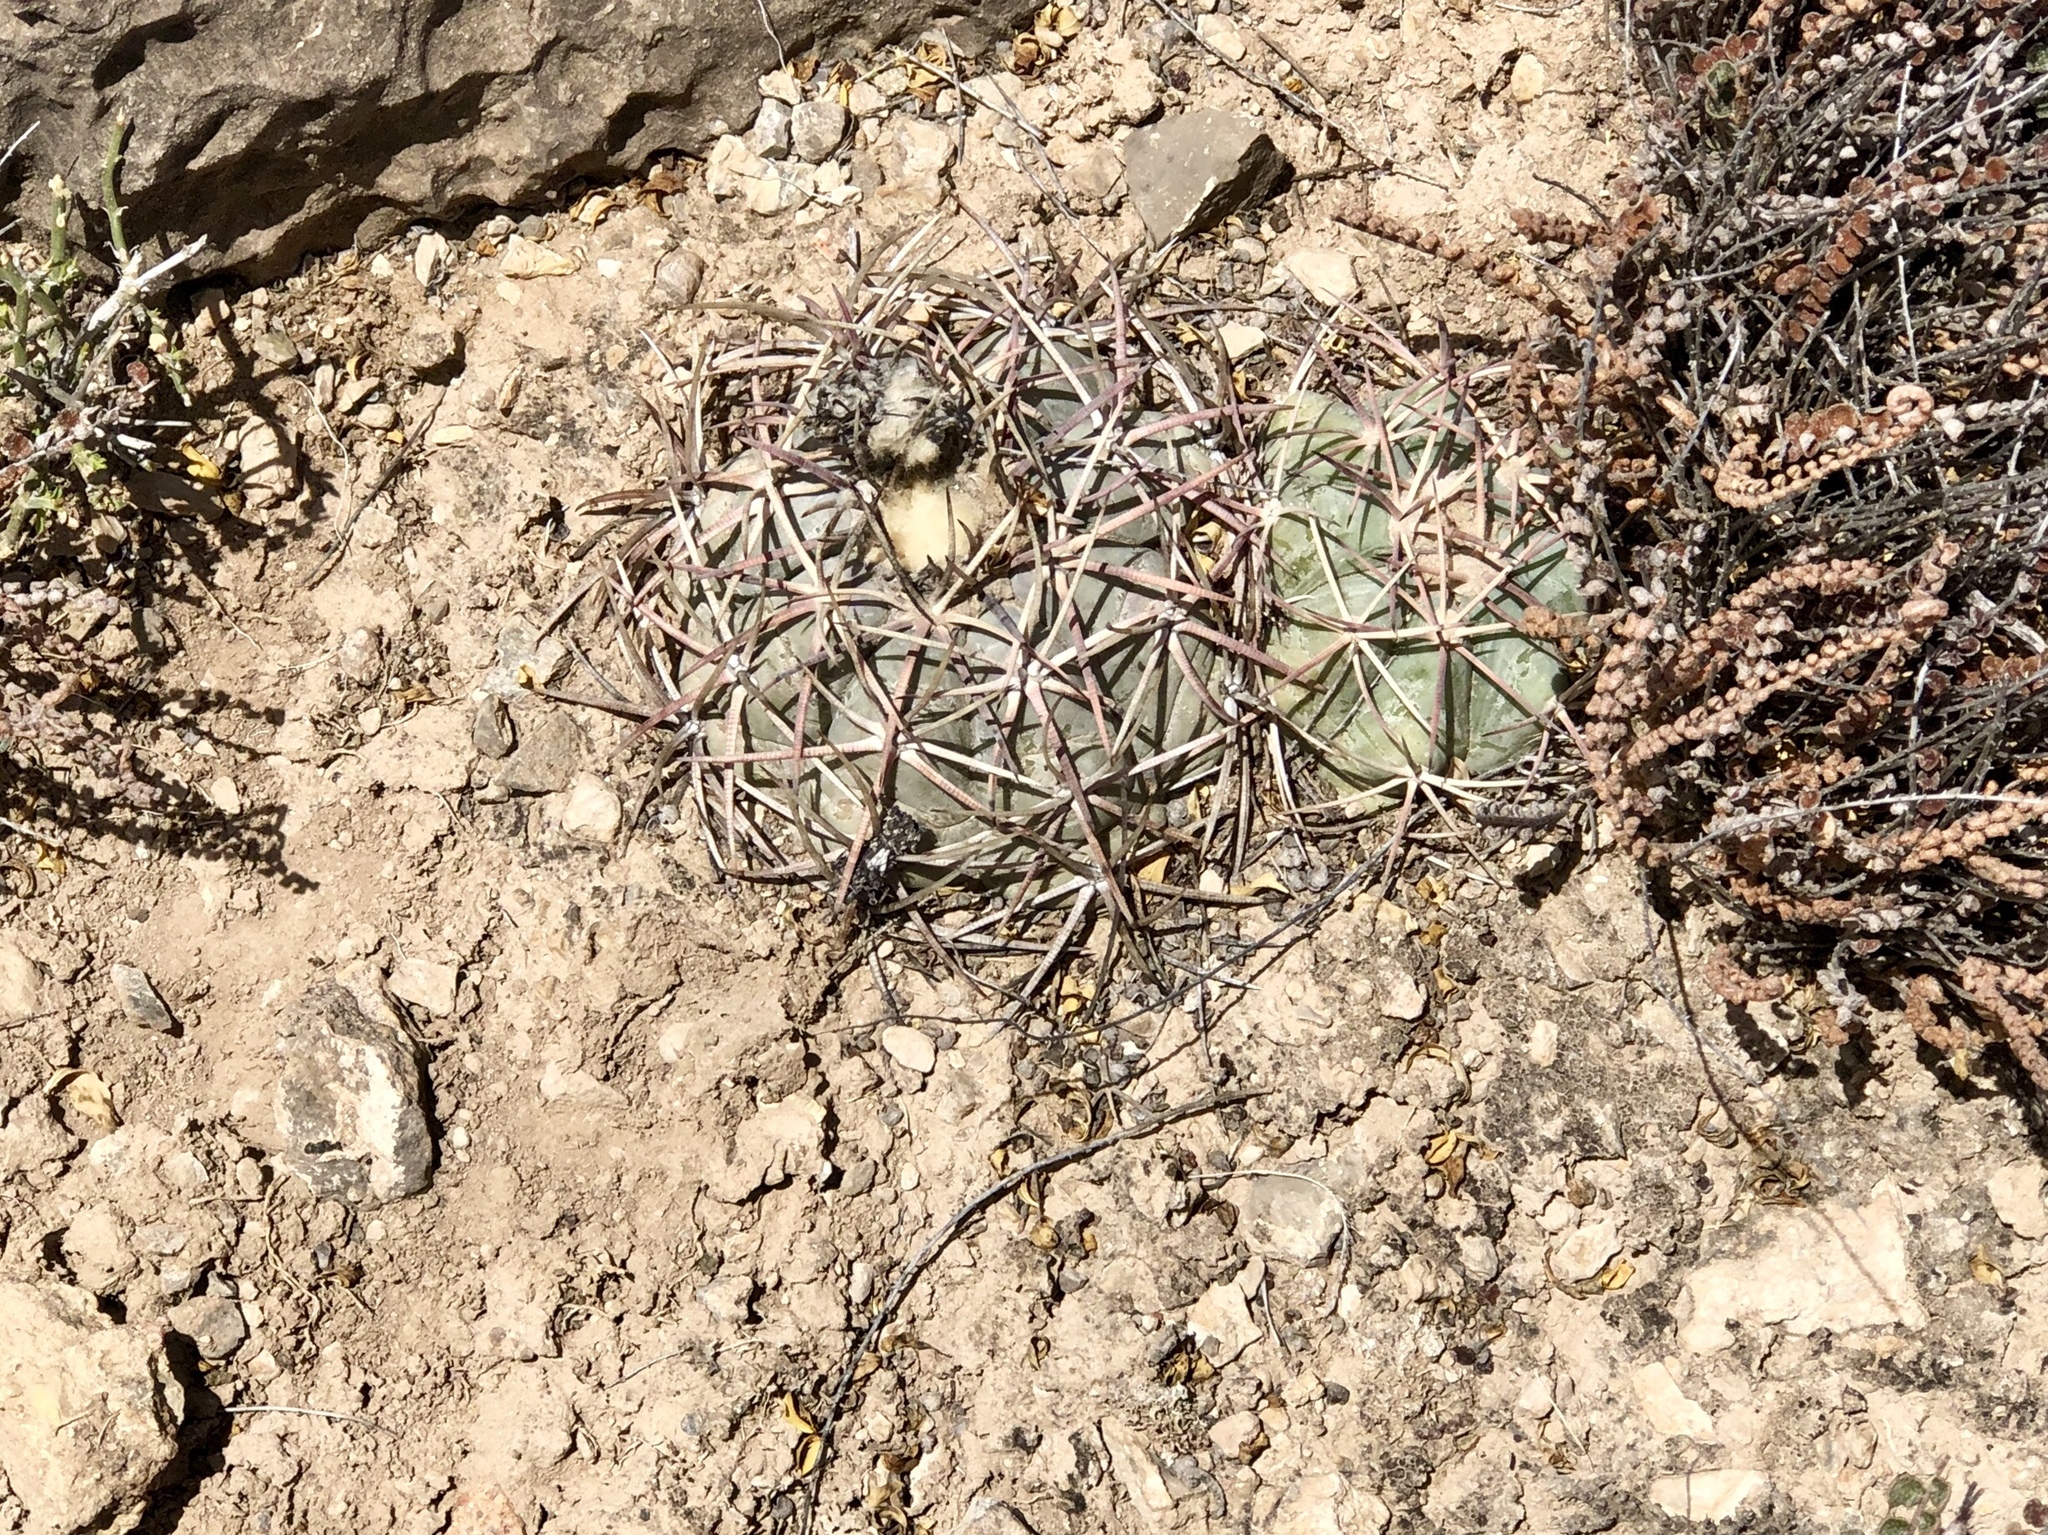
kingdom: Plantae
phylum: Tracheophyta
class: Magnoliopsida
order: Caryophyllales
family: Cactaceae
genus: Echinocactus
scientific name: Echinocactus horizonthalonius
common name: Devilshead
